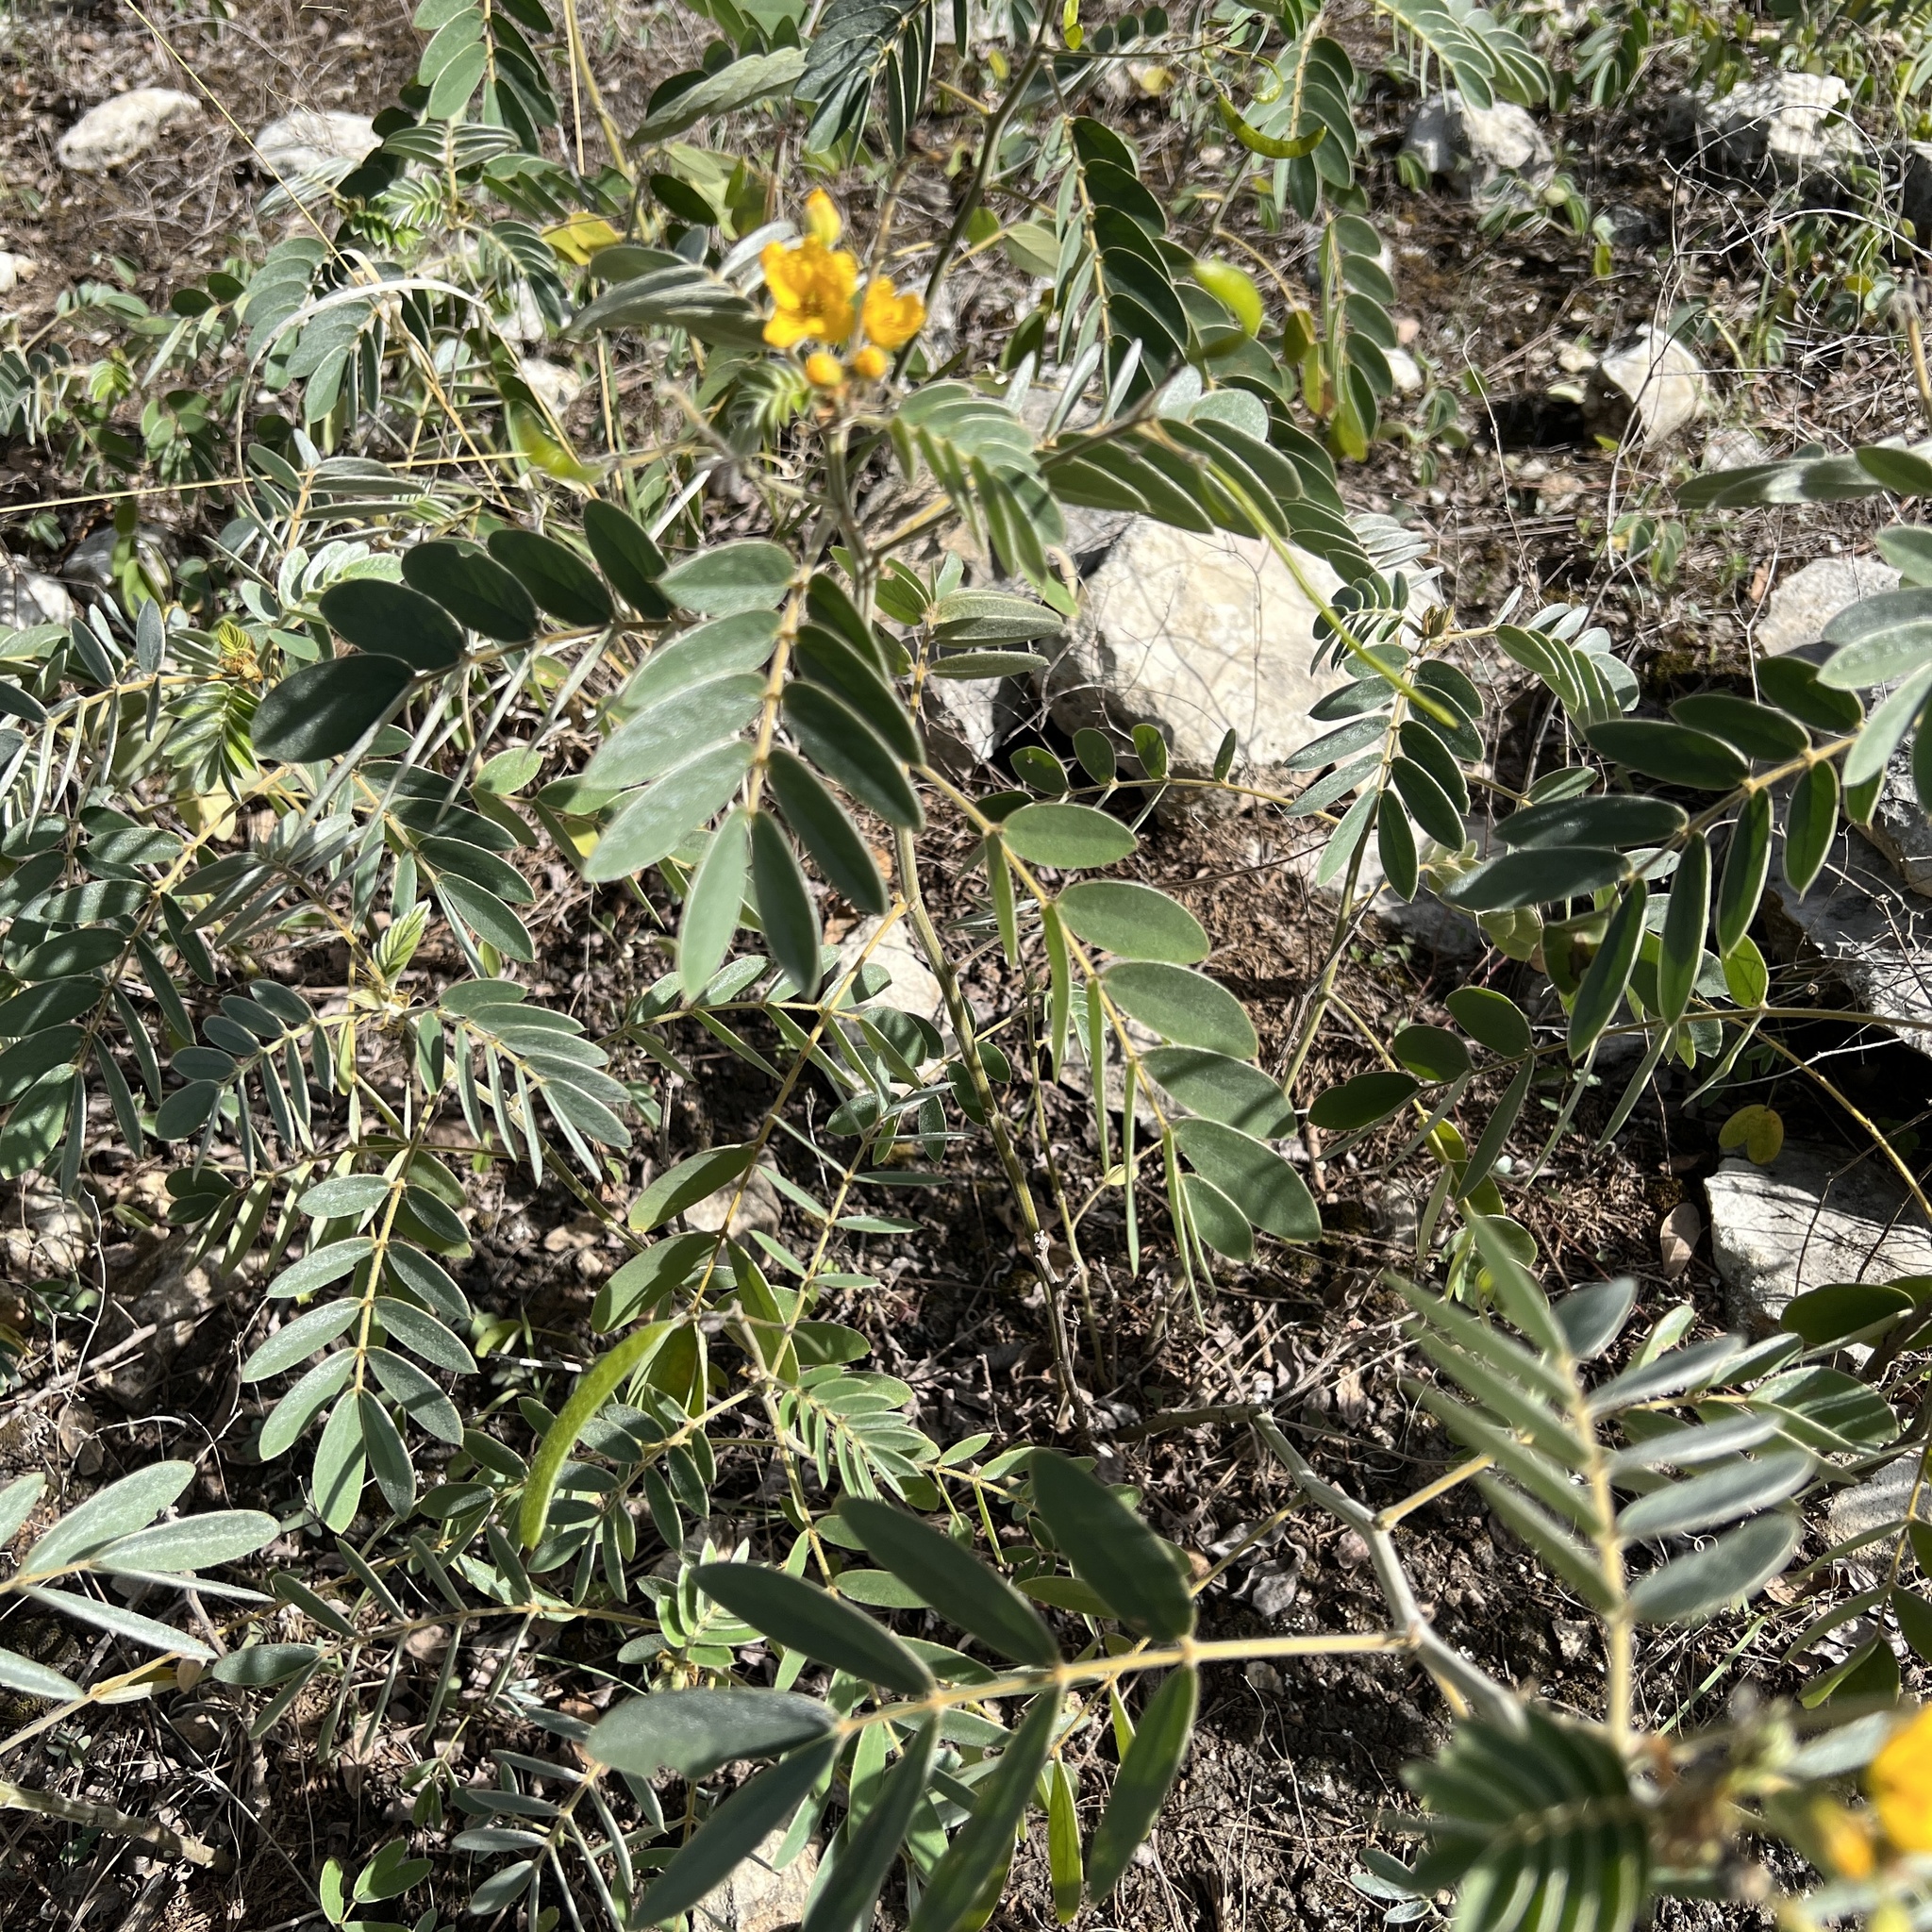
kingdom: Plantae
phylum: Tracheophyta
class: Magnoliopsida
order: Fabales
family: Fabaceae
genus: Senna
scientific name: Senna lindheimeriana
